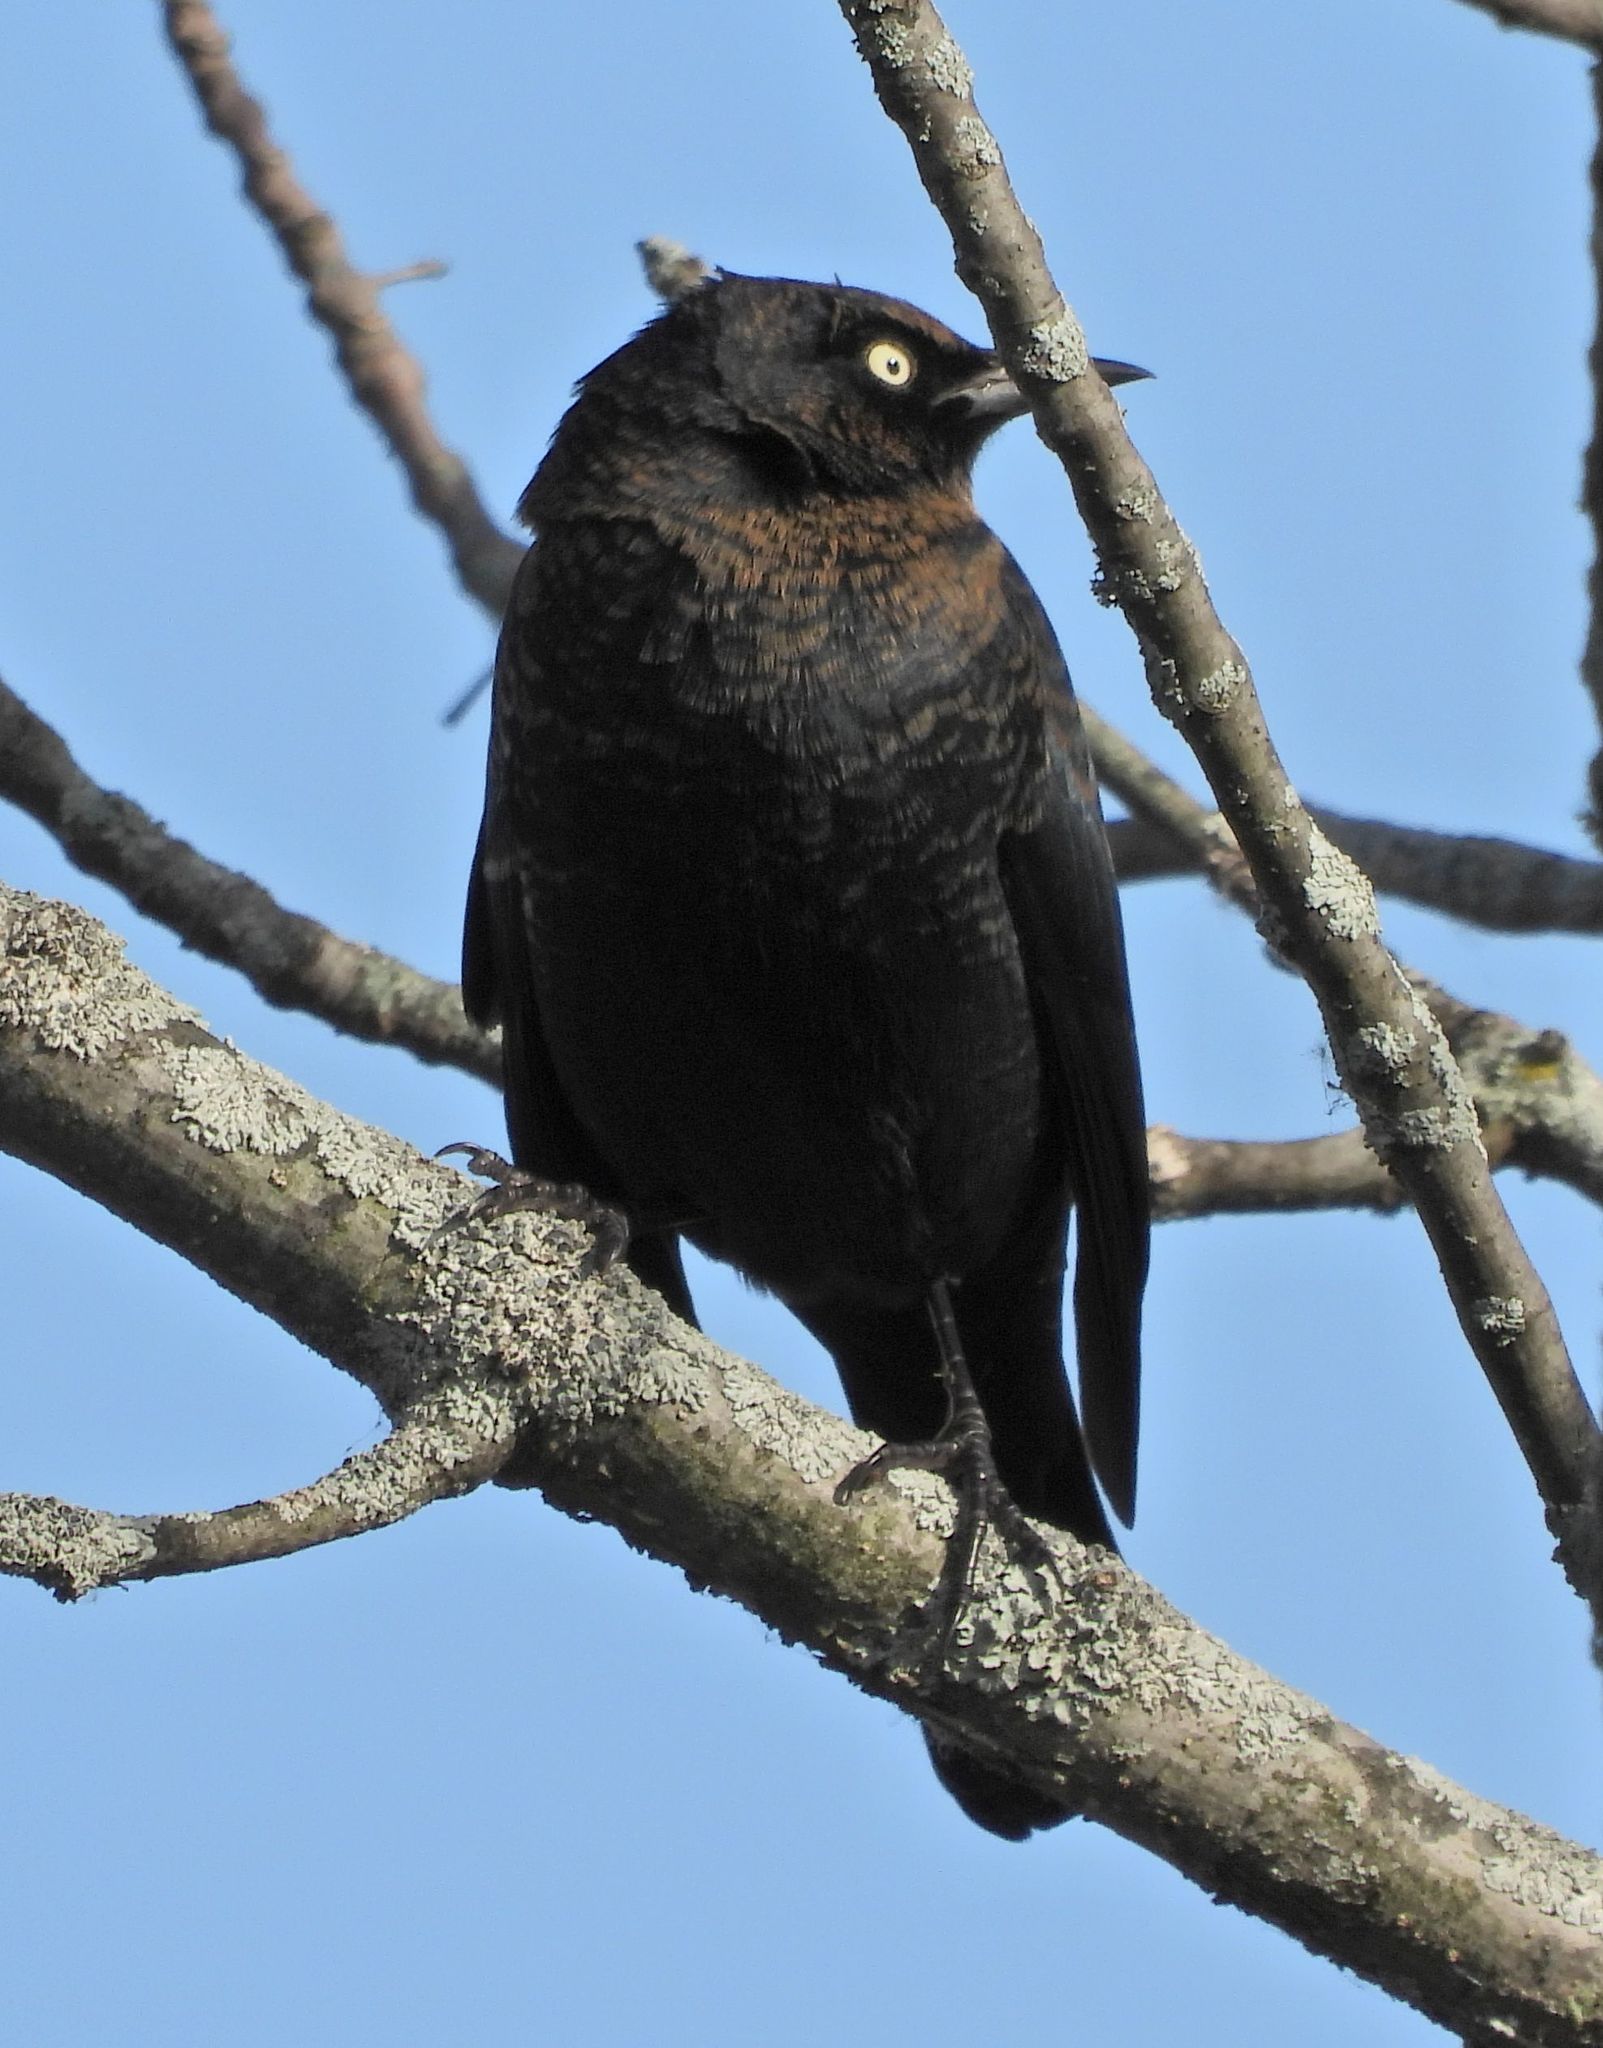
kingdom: Animalia
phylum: Chordata
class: Aves
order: Passeriformes
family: Icteridae
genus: Euphagus
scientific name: Euphagus carolinus
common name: Rusty blackbird
